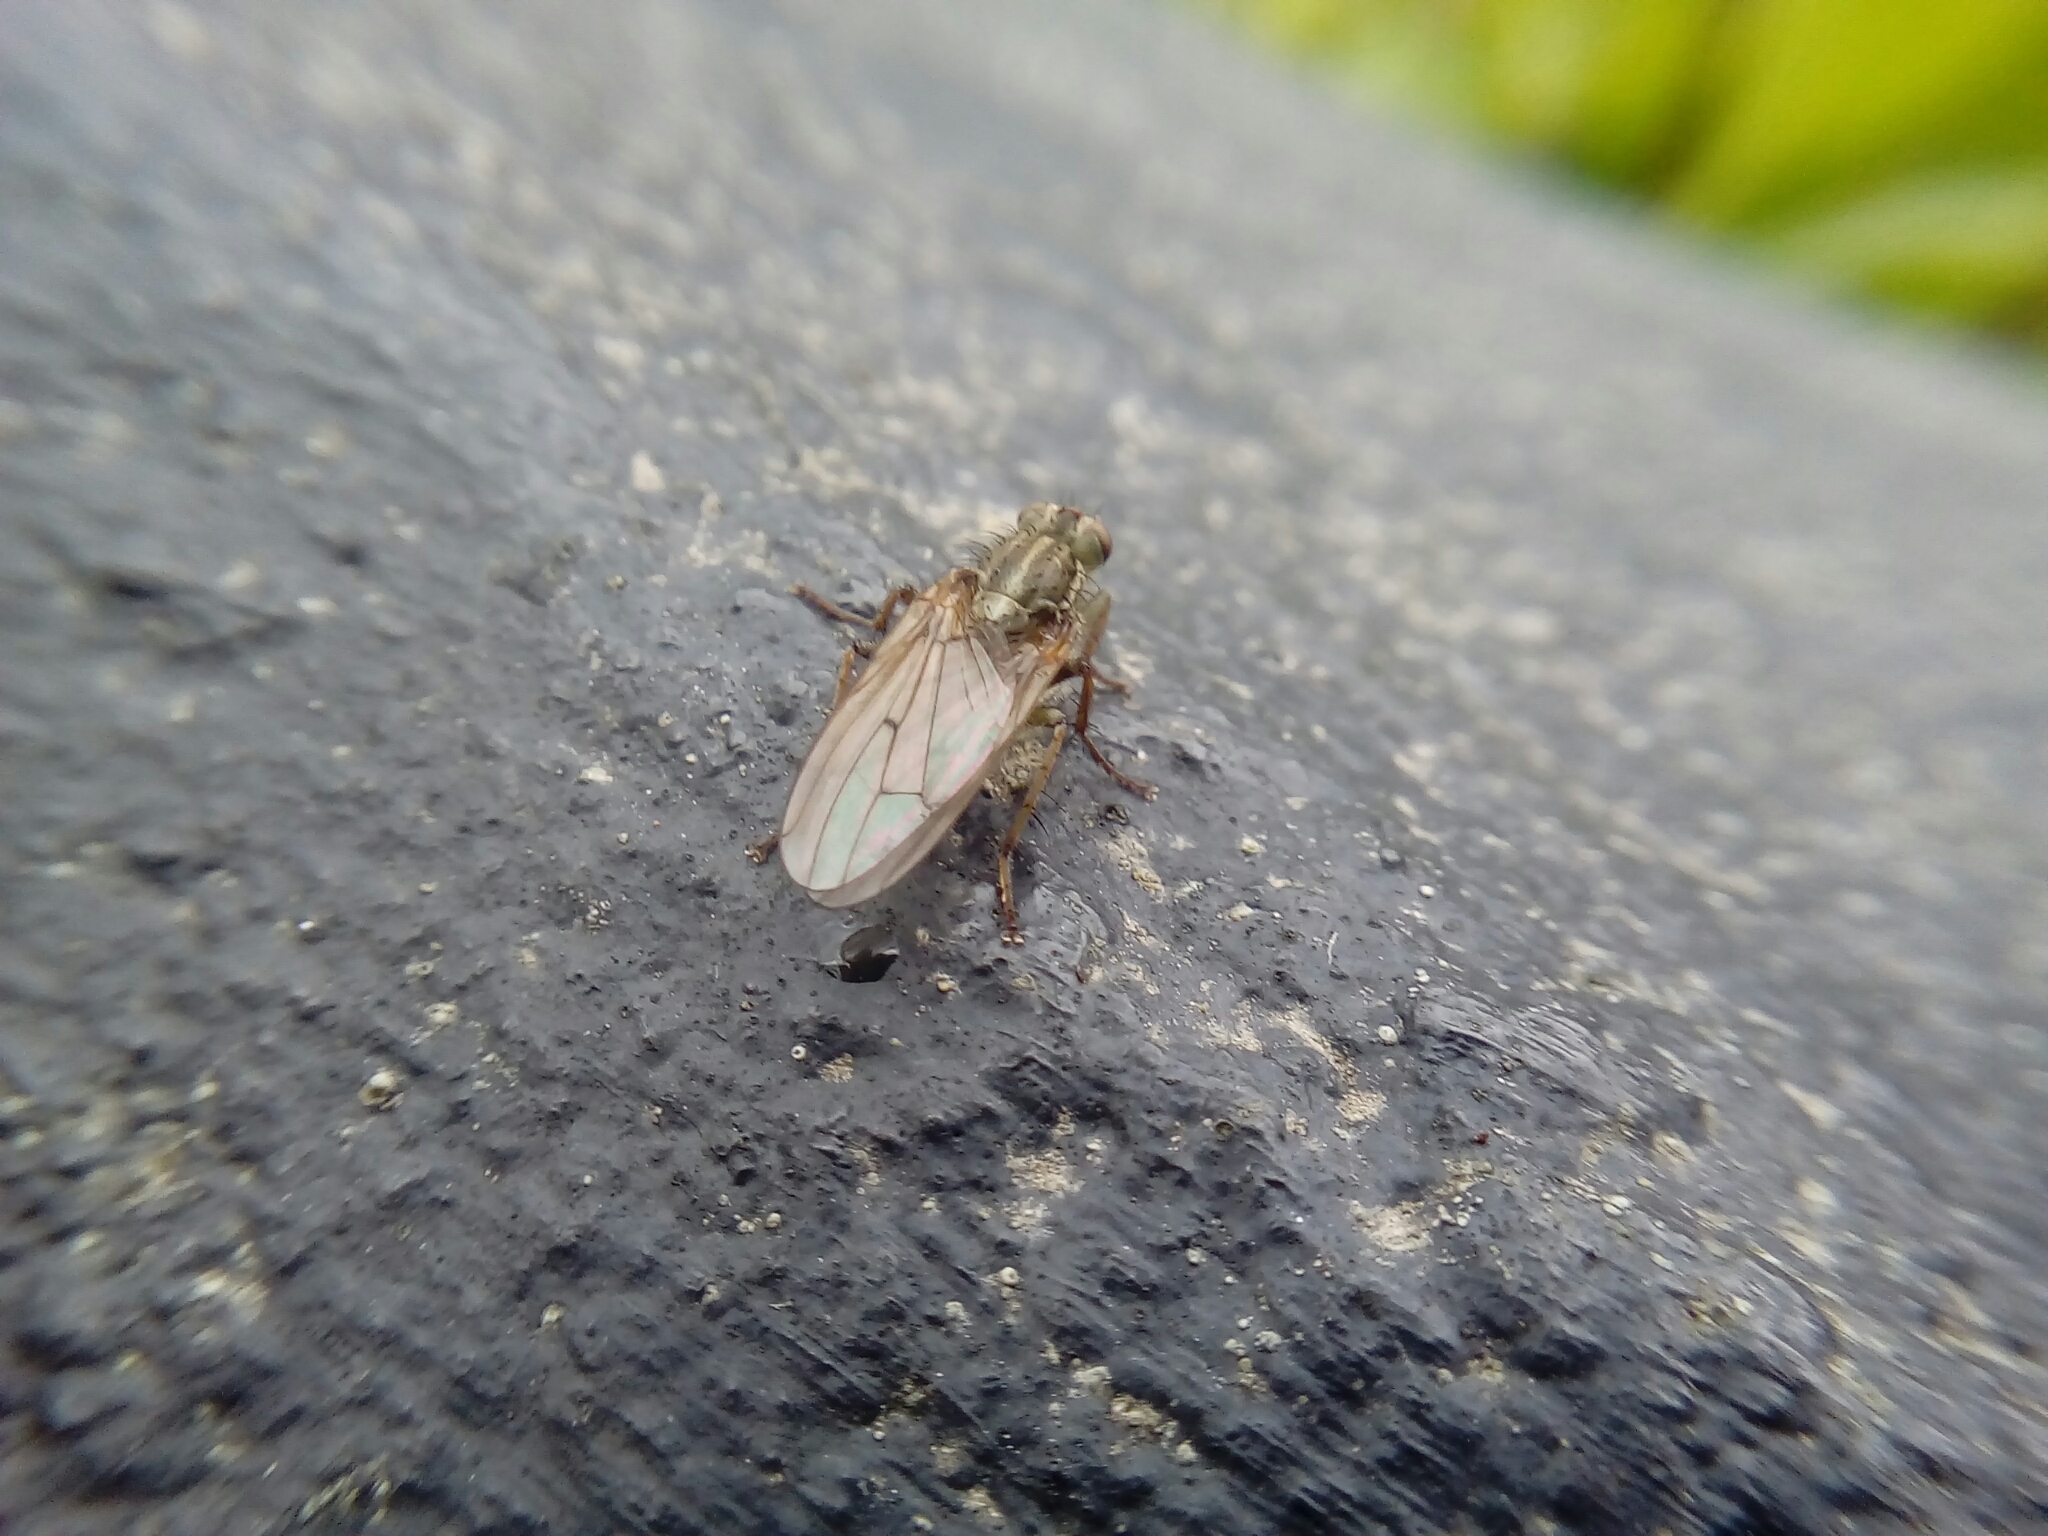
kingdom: Animalia
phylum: Arthropoda
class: Insecta
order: Diptera
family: Scathophagidae
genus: Scathophaga
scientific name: Scathophaga stercoraria
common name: Yellow dung fly
